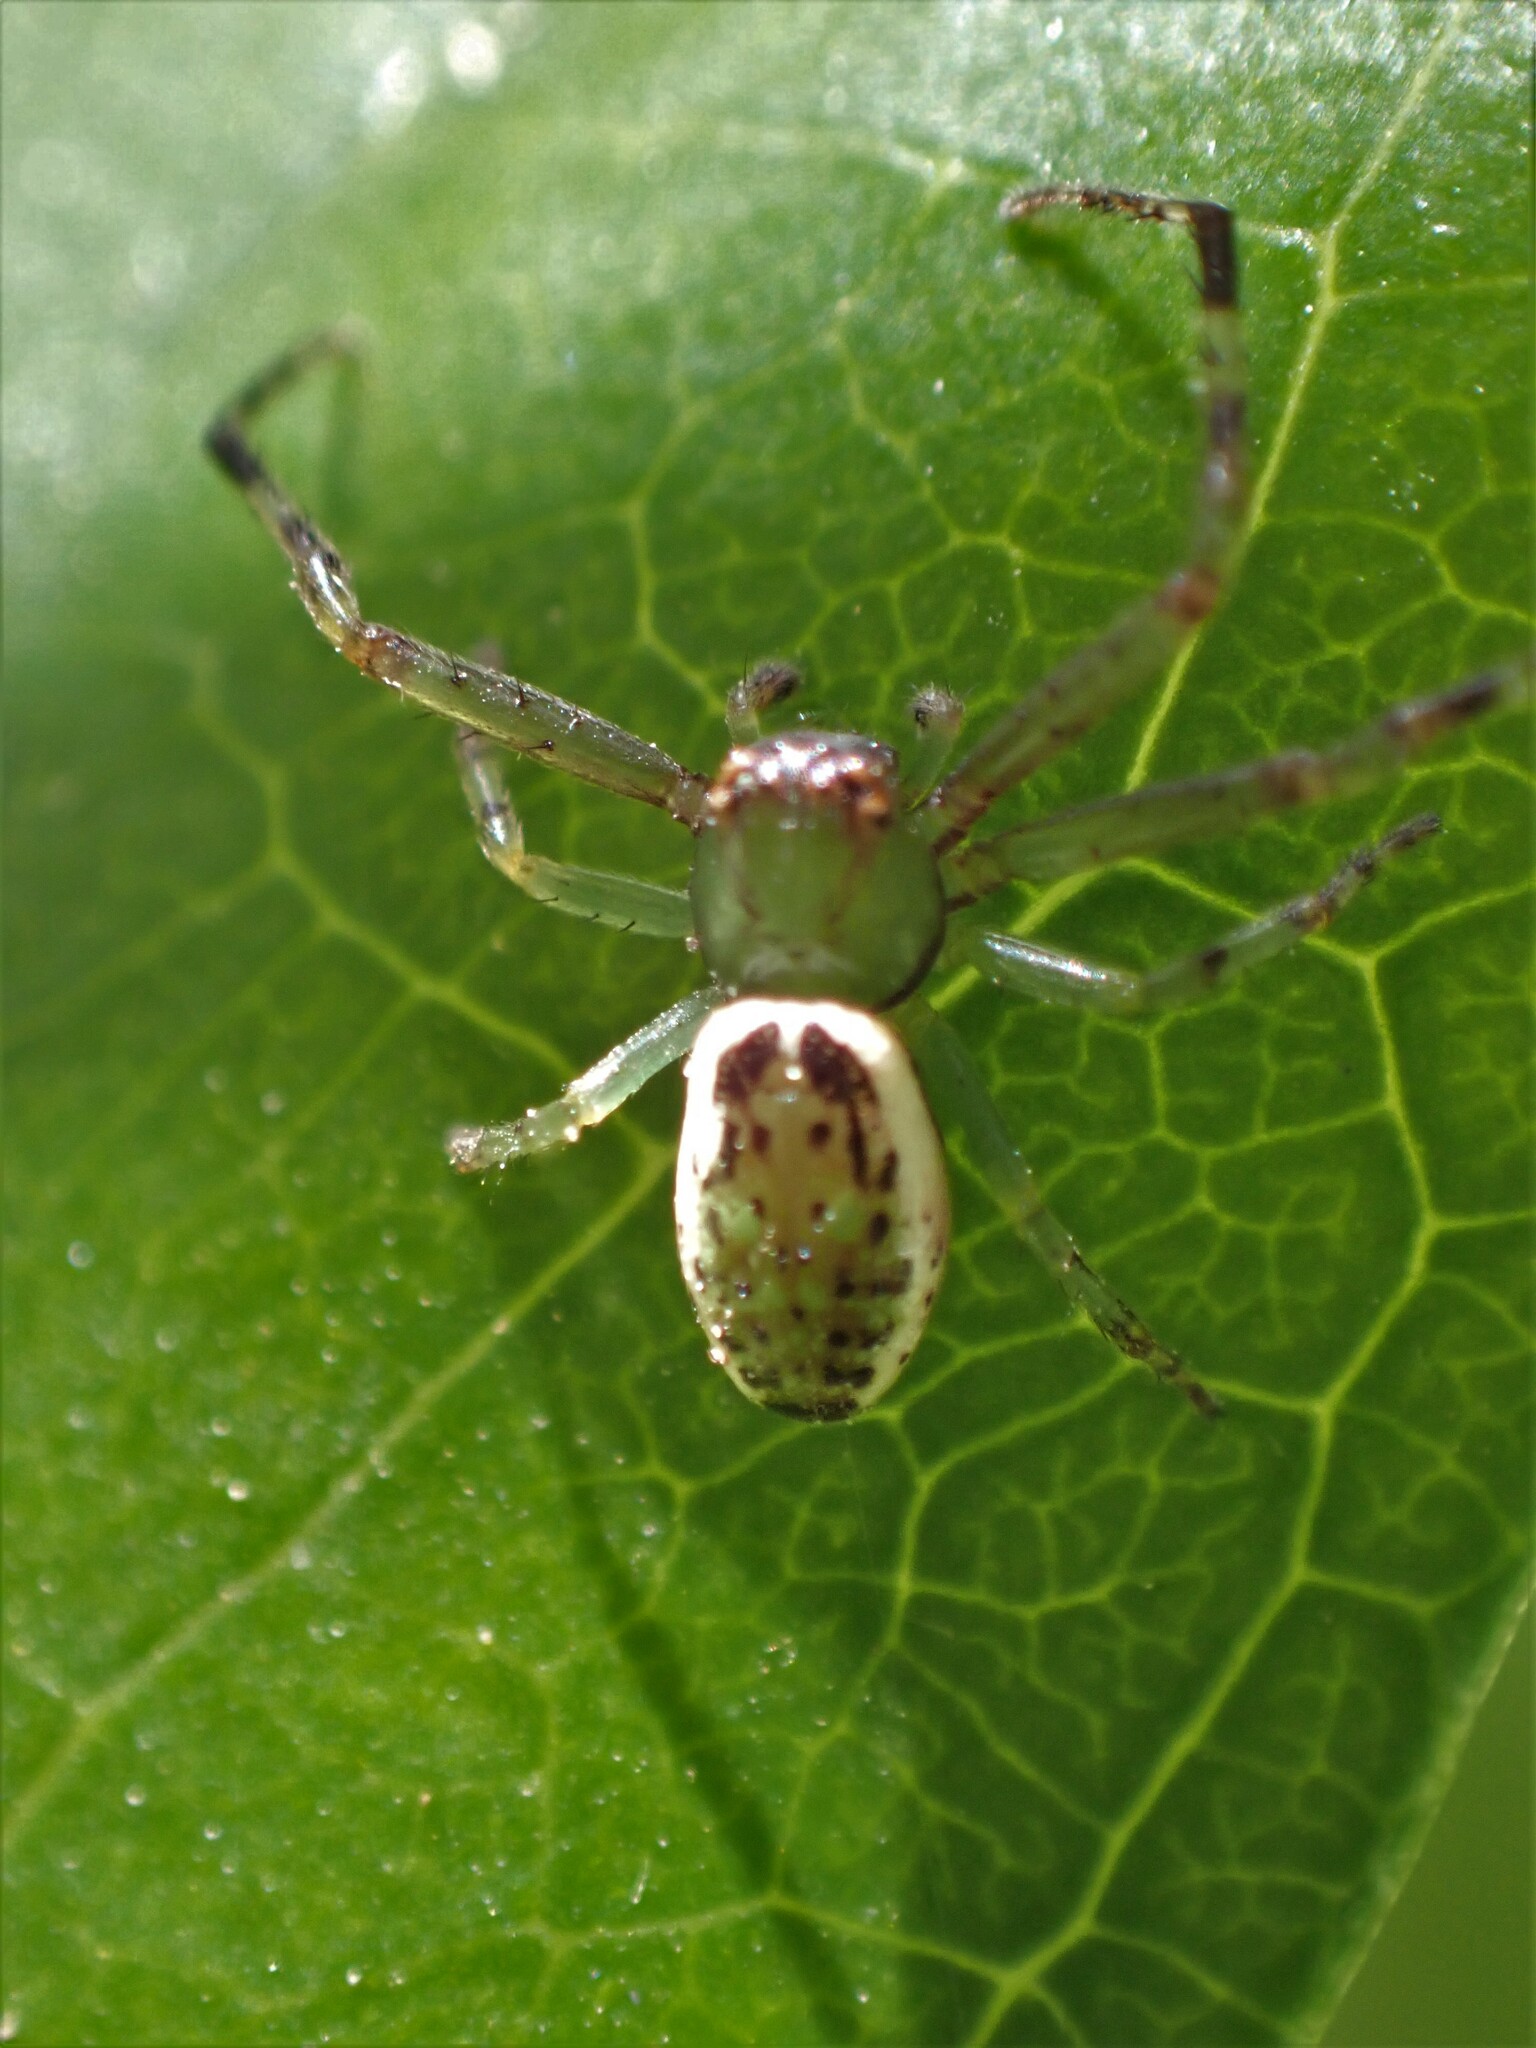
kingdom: Animalia
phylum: Arthropoda
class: Arachnida
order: Araneae
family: Thomisidae
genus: Diaea
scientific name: Diaea ambara
